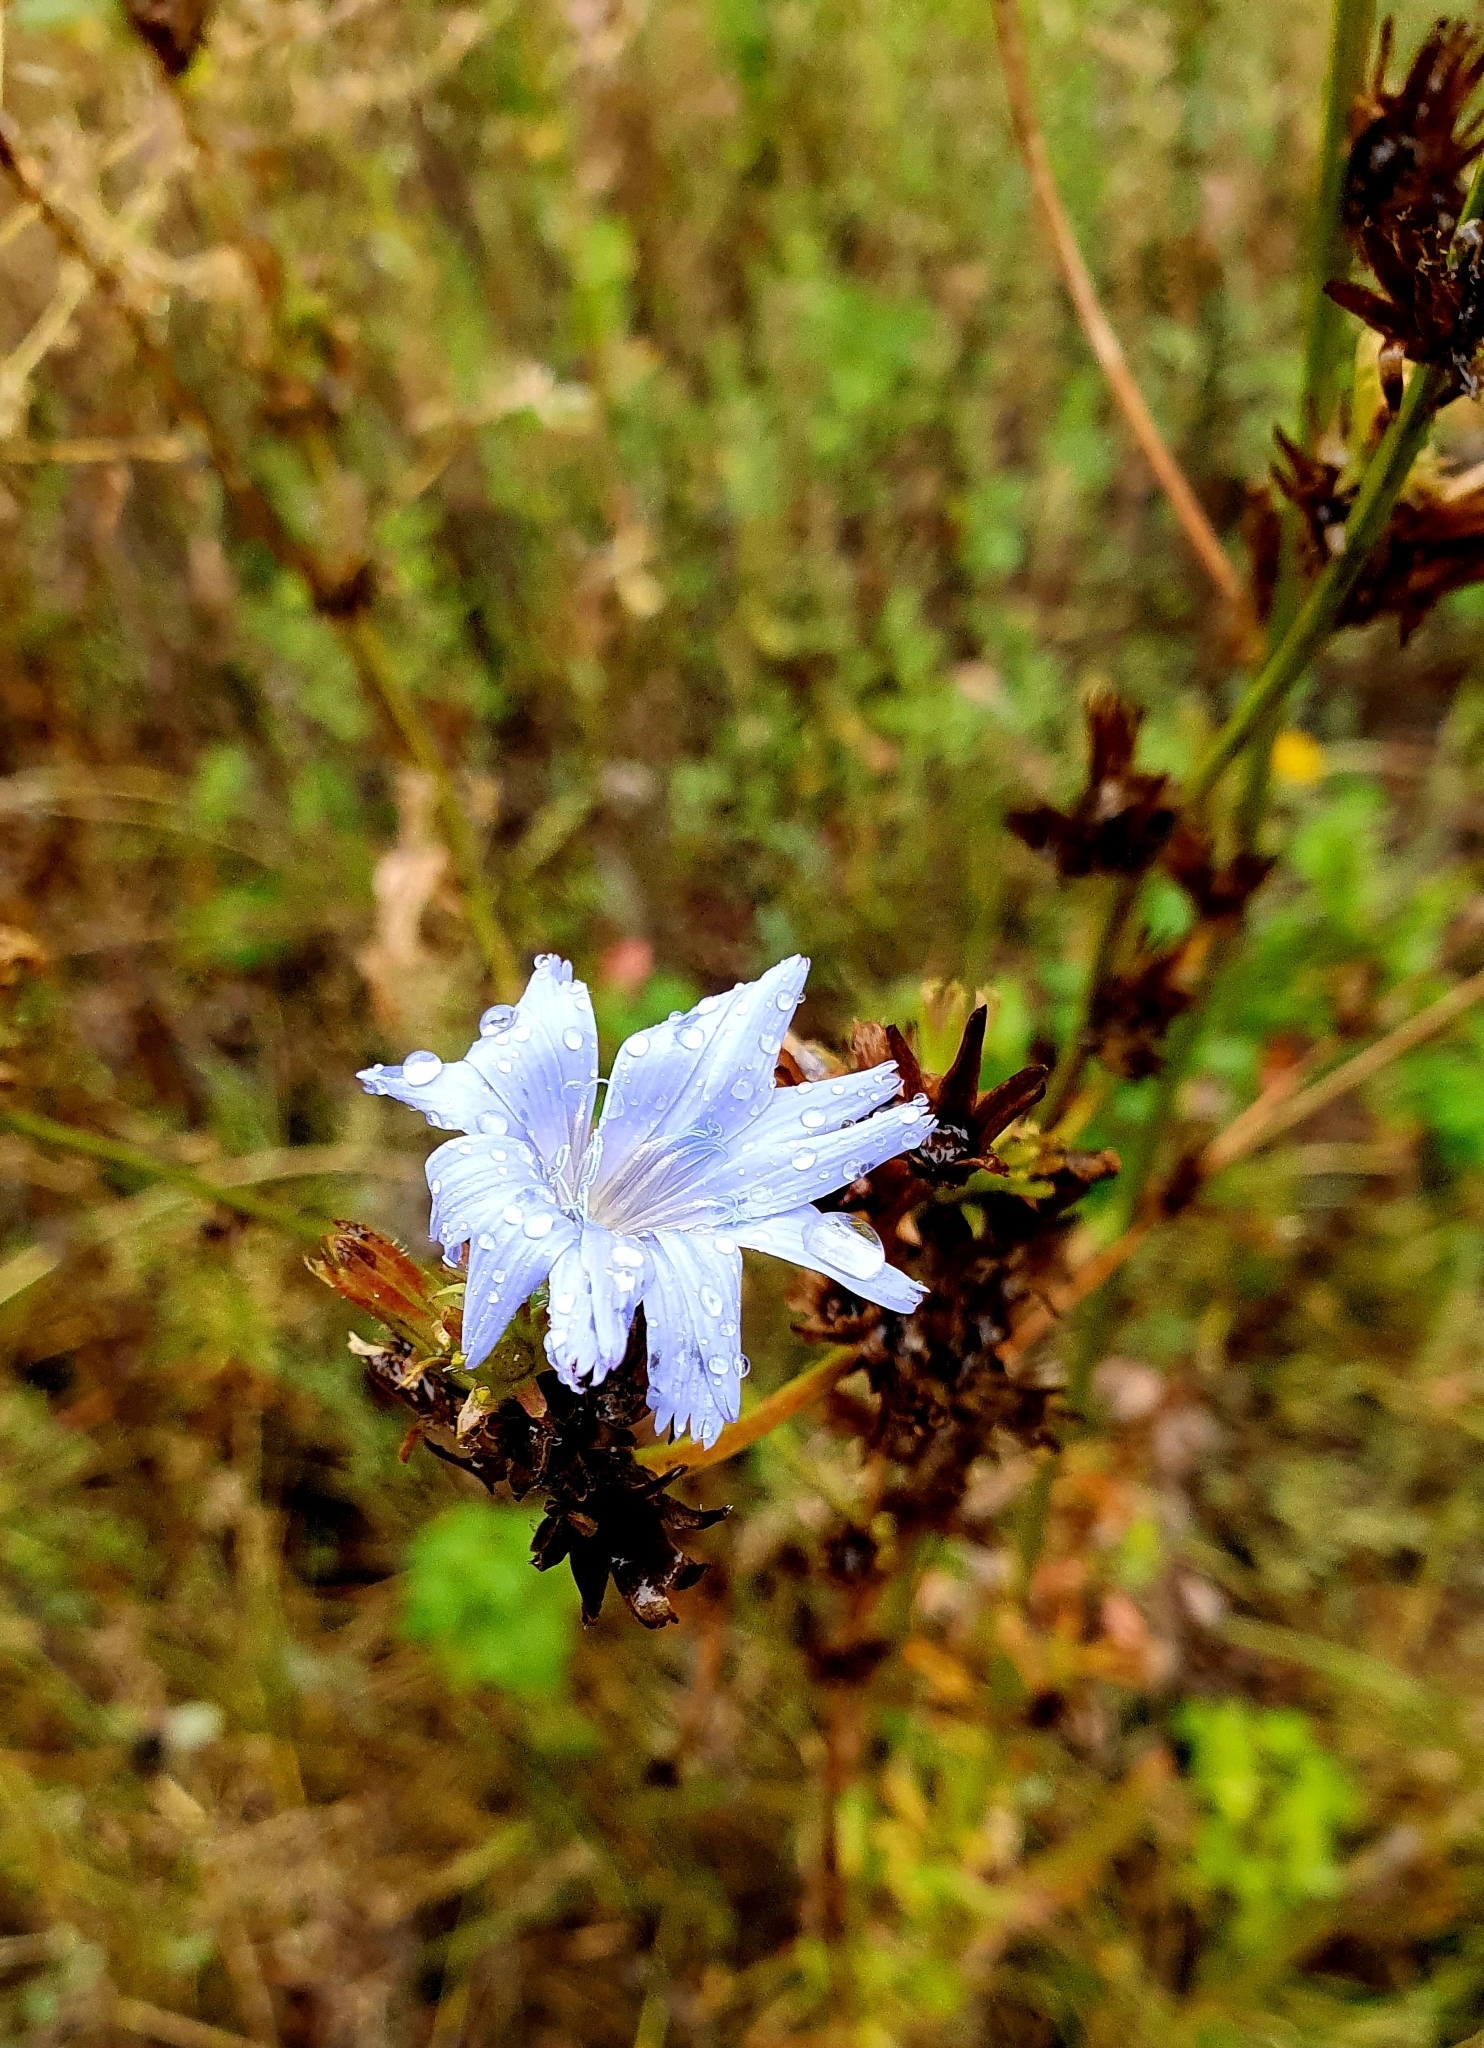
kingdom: Plantae
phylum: Tracheophyta
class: Magnoliopsida
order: Asterales
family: Asteraceae
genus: Cichorium
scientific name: Cichorium intybus
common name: Chicory
